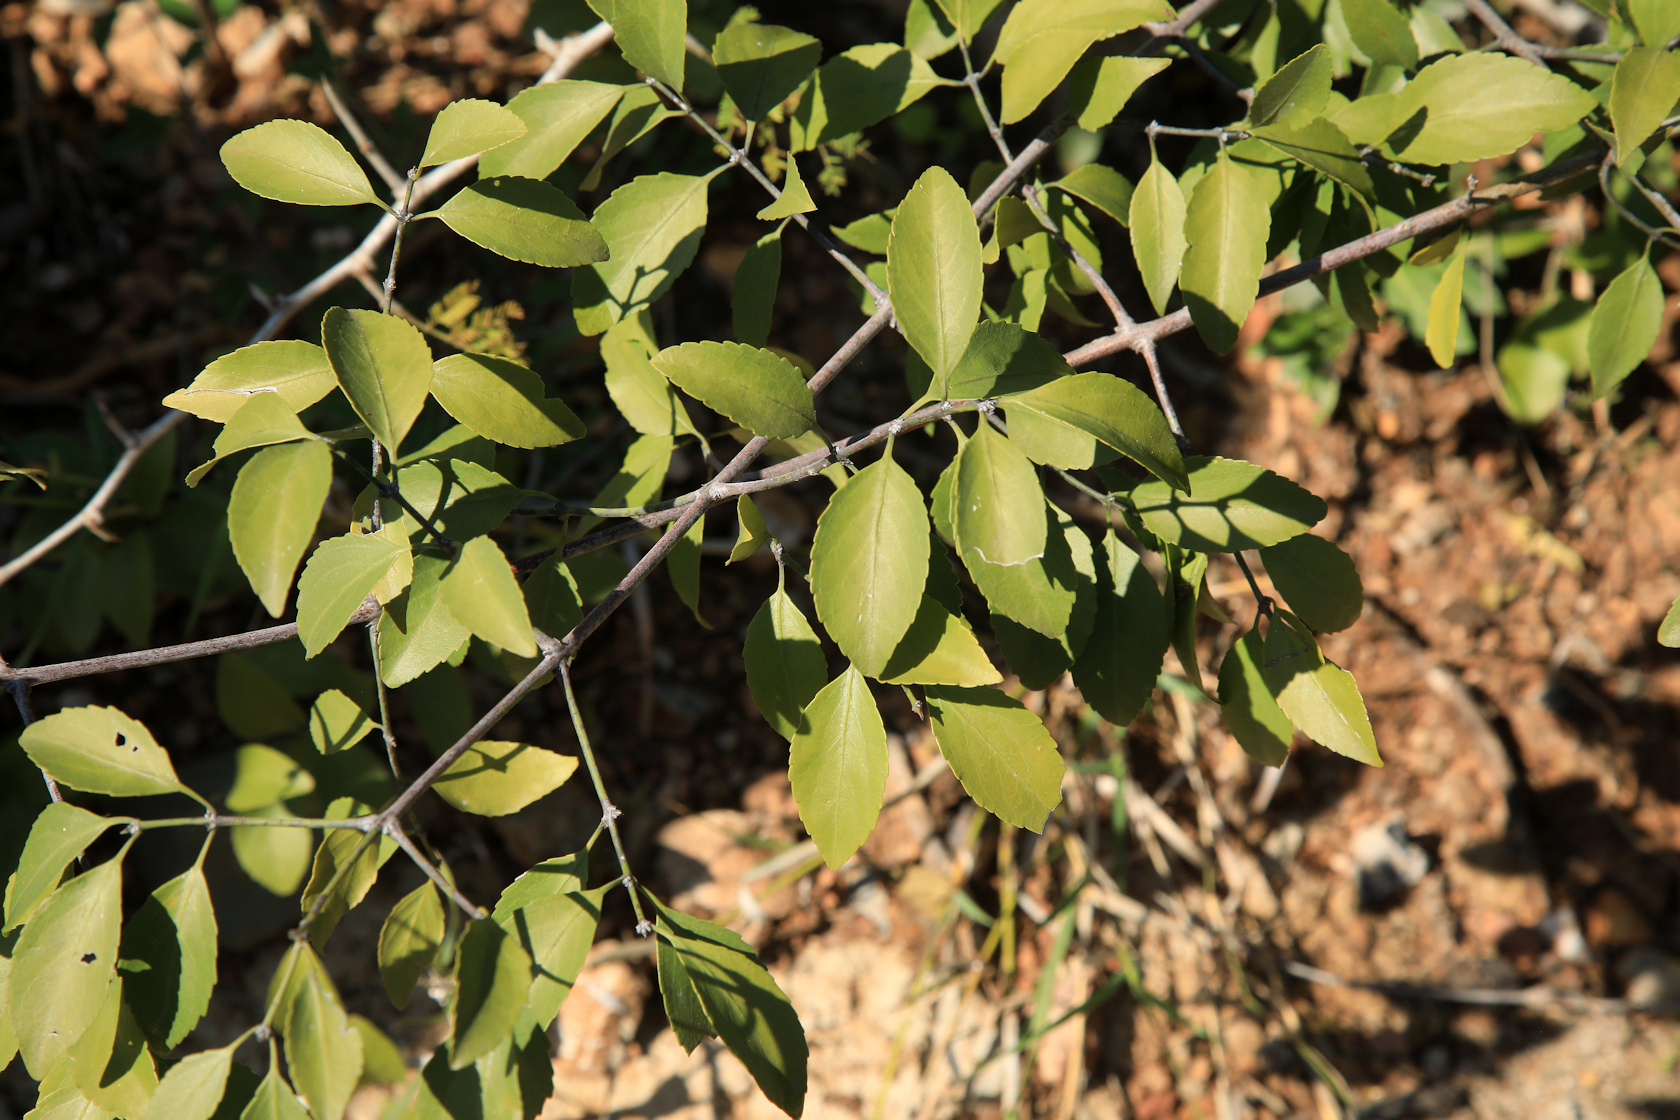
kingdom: Plantae
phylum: Tracheophyta
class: Magnoliopsida
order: Celastrales
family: Celastraceae
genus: Pristimera
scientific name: Pristimera longipetiolata
